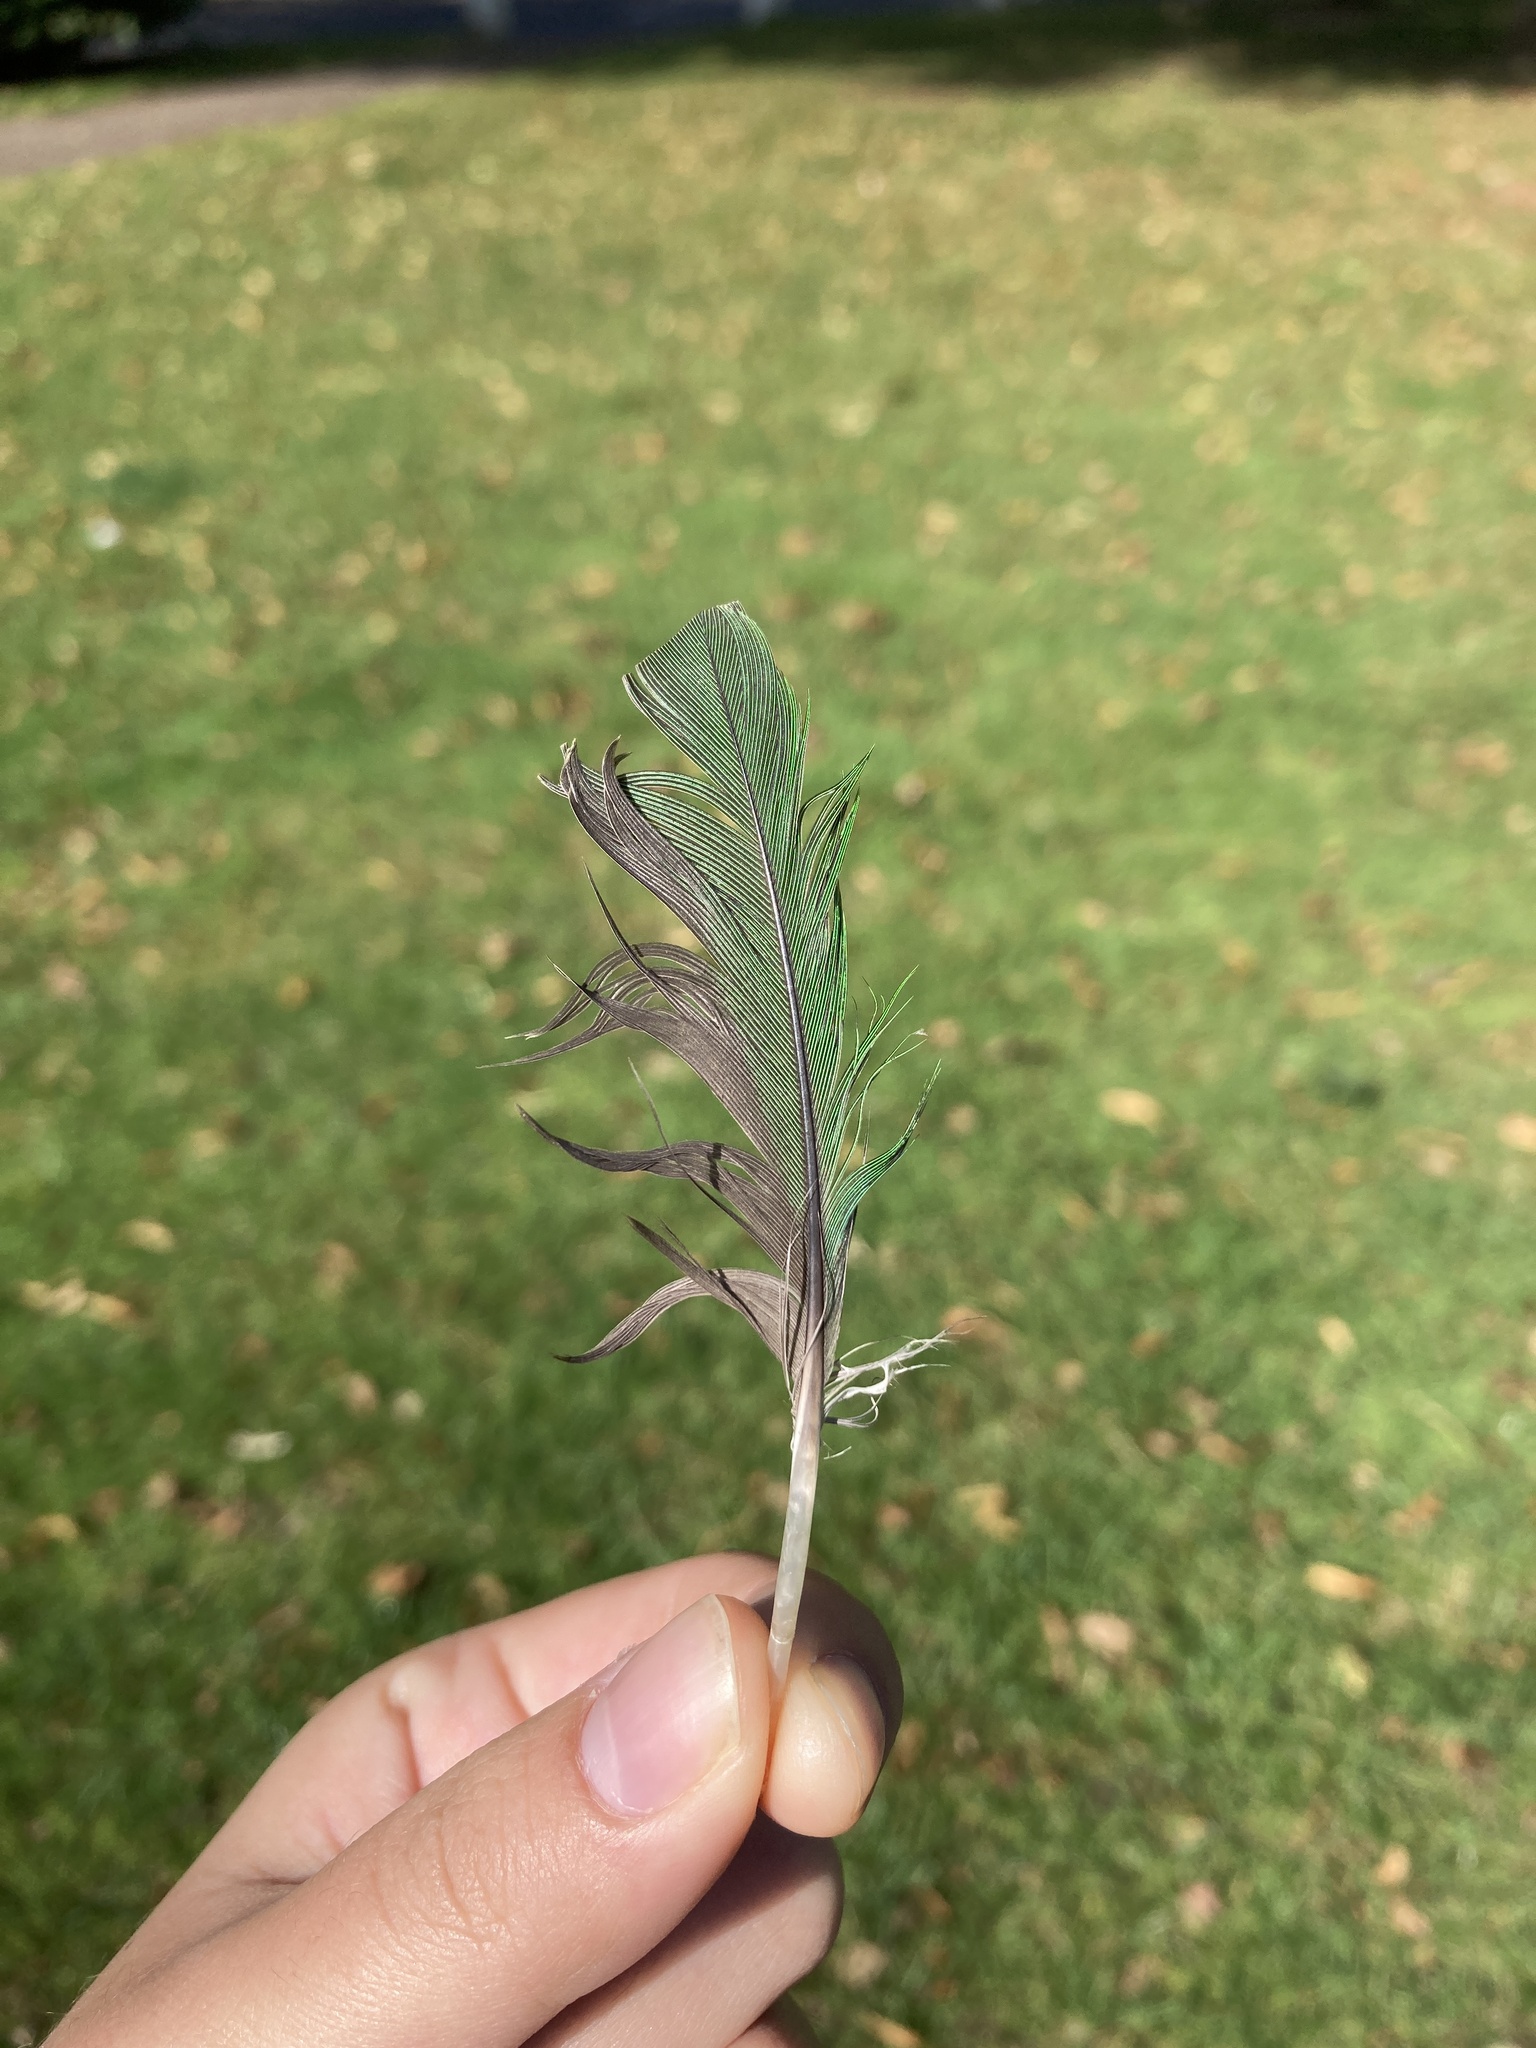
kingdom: Animalia
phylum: Chordata
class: Aves
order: Psittaciformes
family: Psittacidae
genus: Psittacula
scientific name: Psittacula krameri
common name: Rose-ringed parakeet
